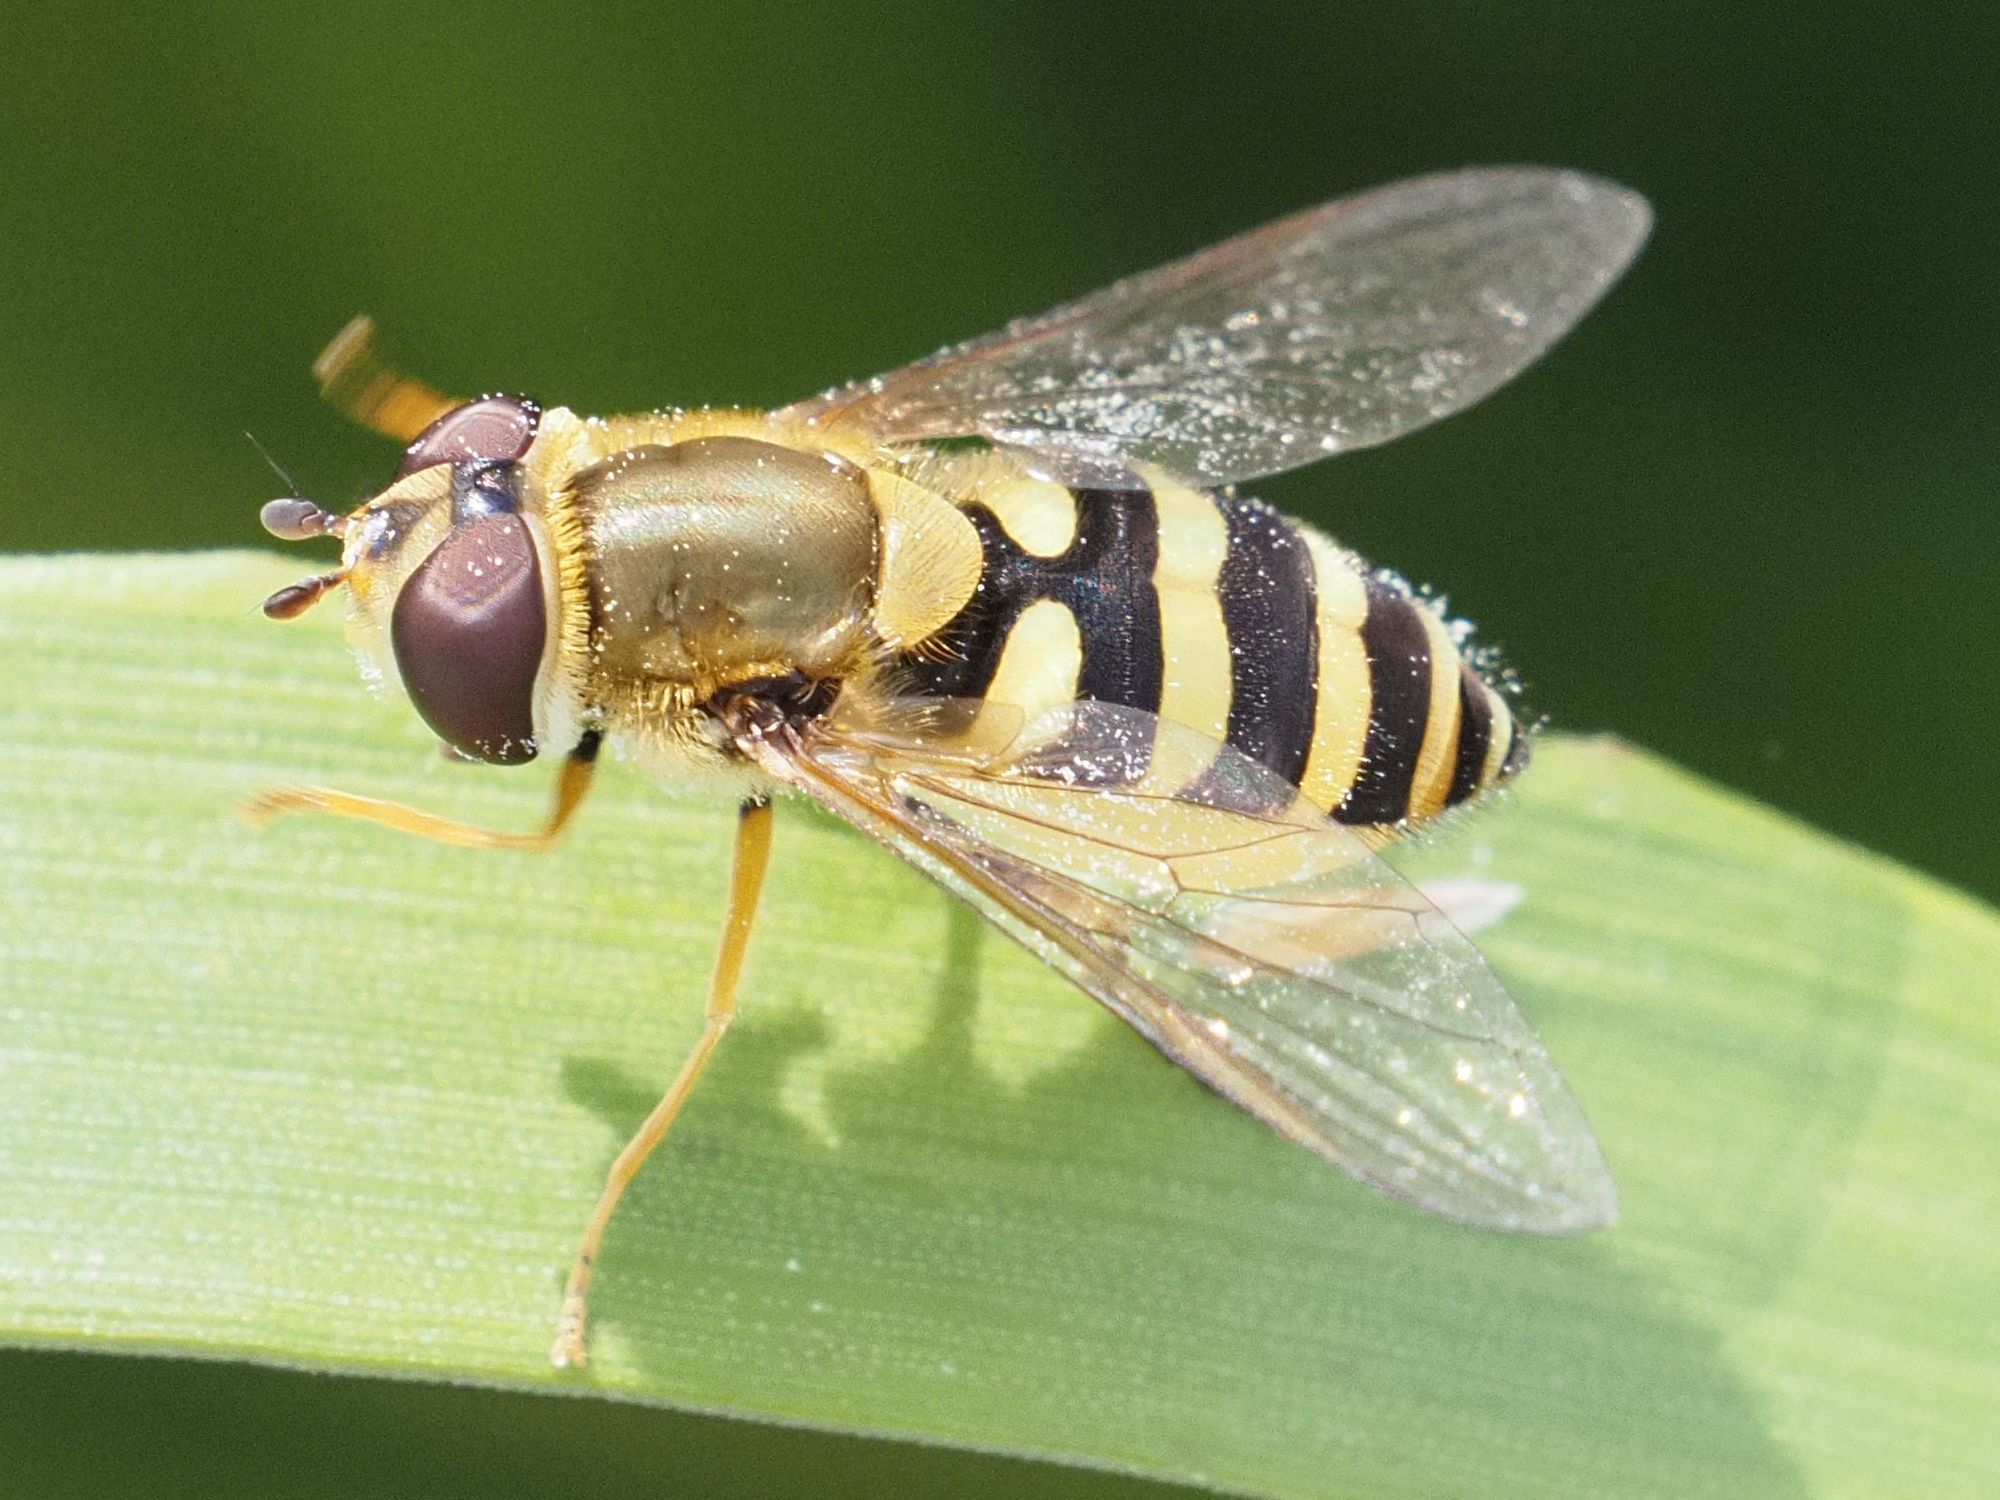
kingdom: Animalia
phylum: Arthropoda
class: Insecta
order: Diptera
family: Syrphidae
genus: Syrphus
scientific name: Syrphus
